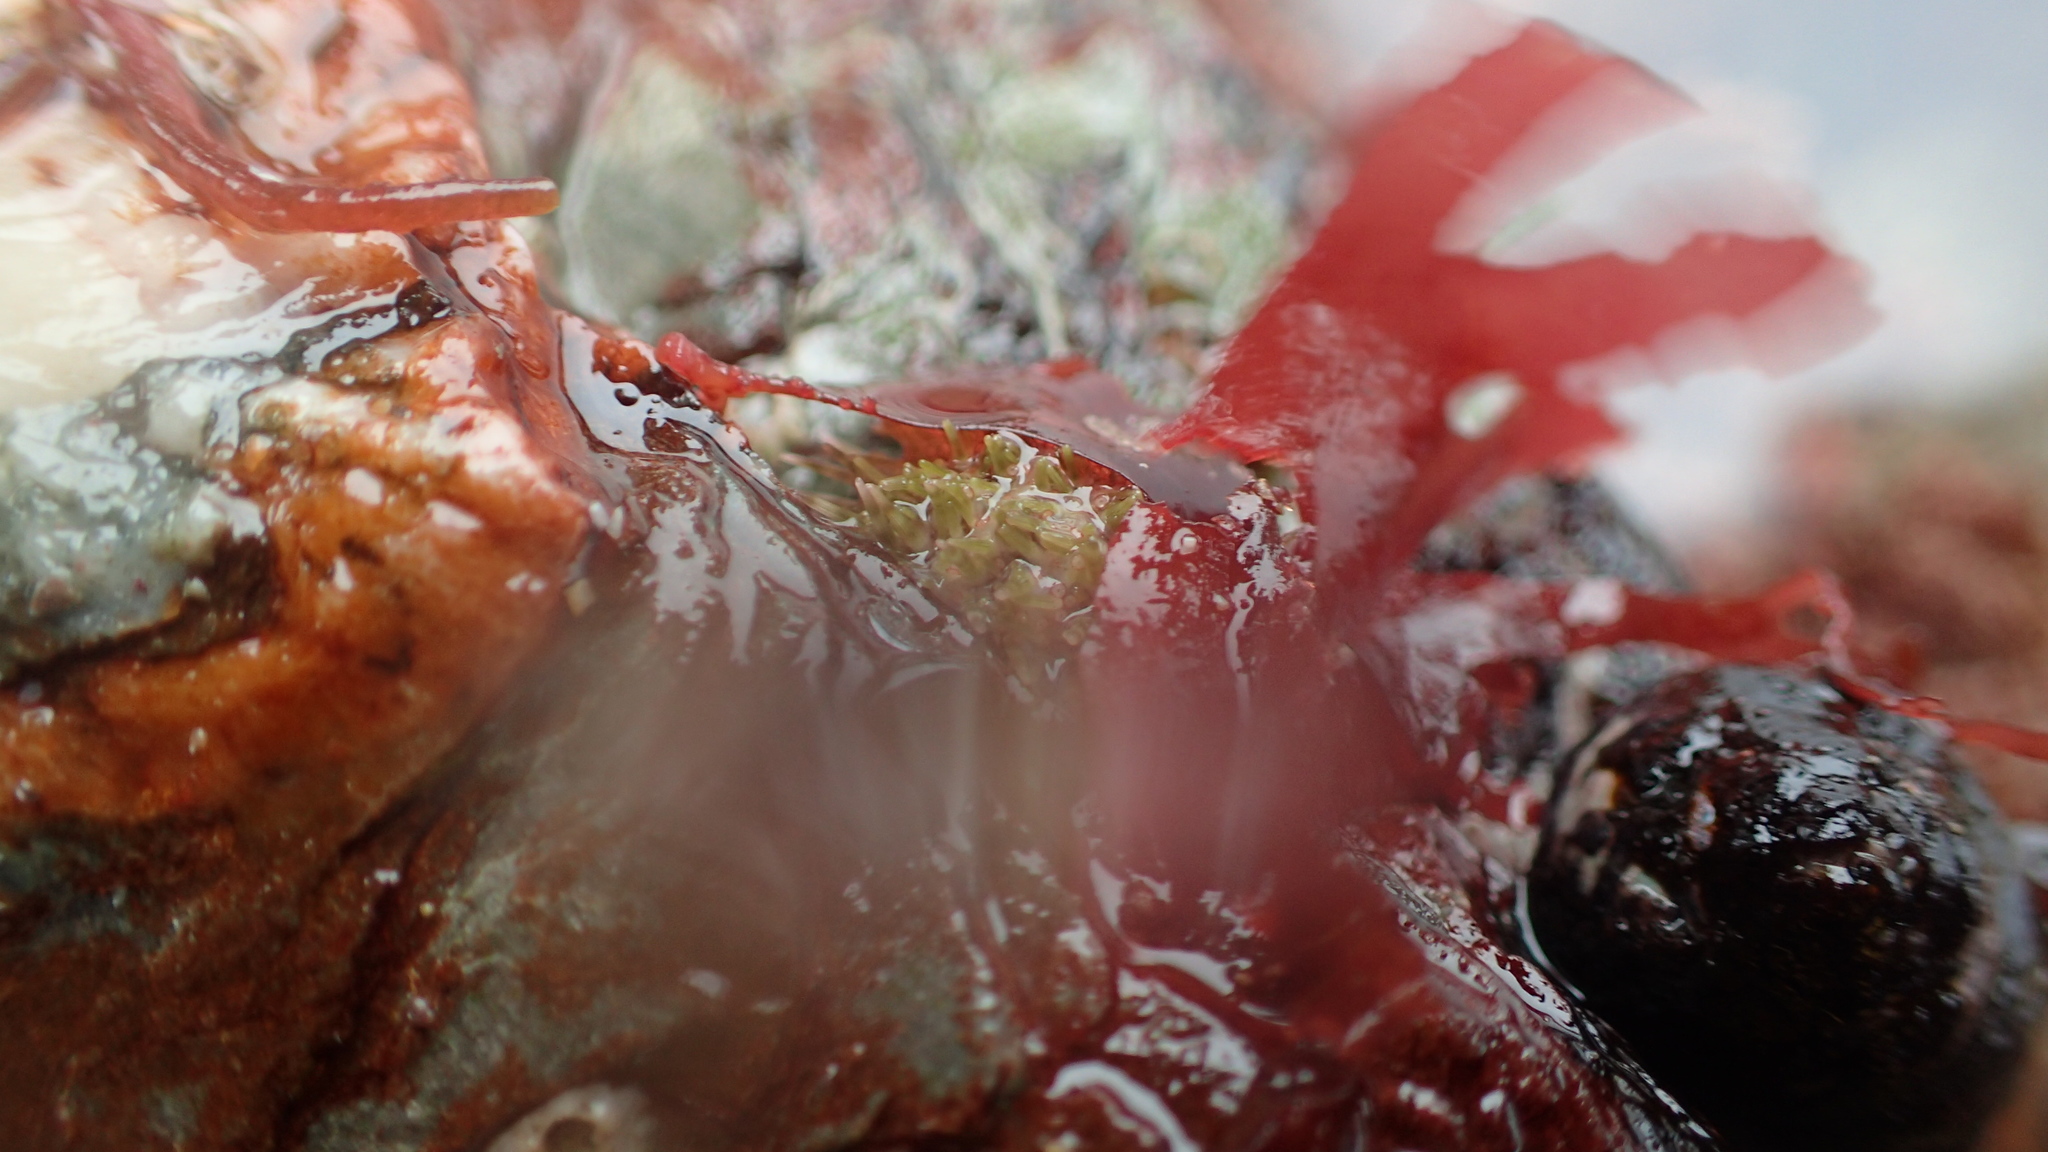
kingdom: Animalia
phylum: Echinodermata
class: Echinoidea
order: Camarodonta
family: Parechinidae
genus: Psammechinus
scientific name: Psammechinus miliaris
